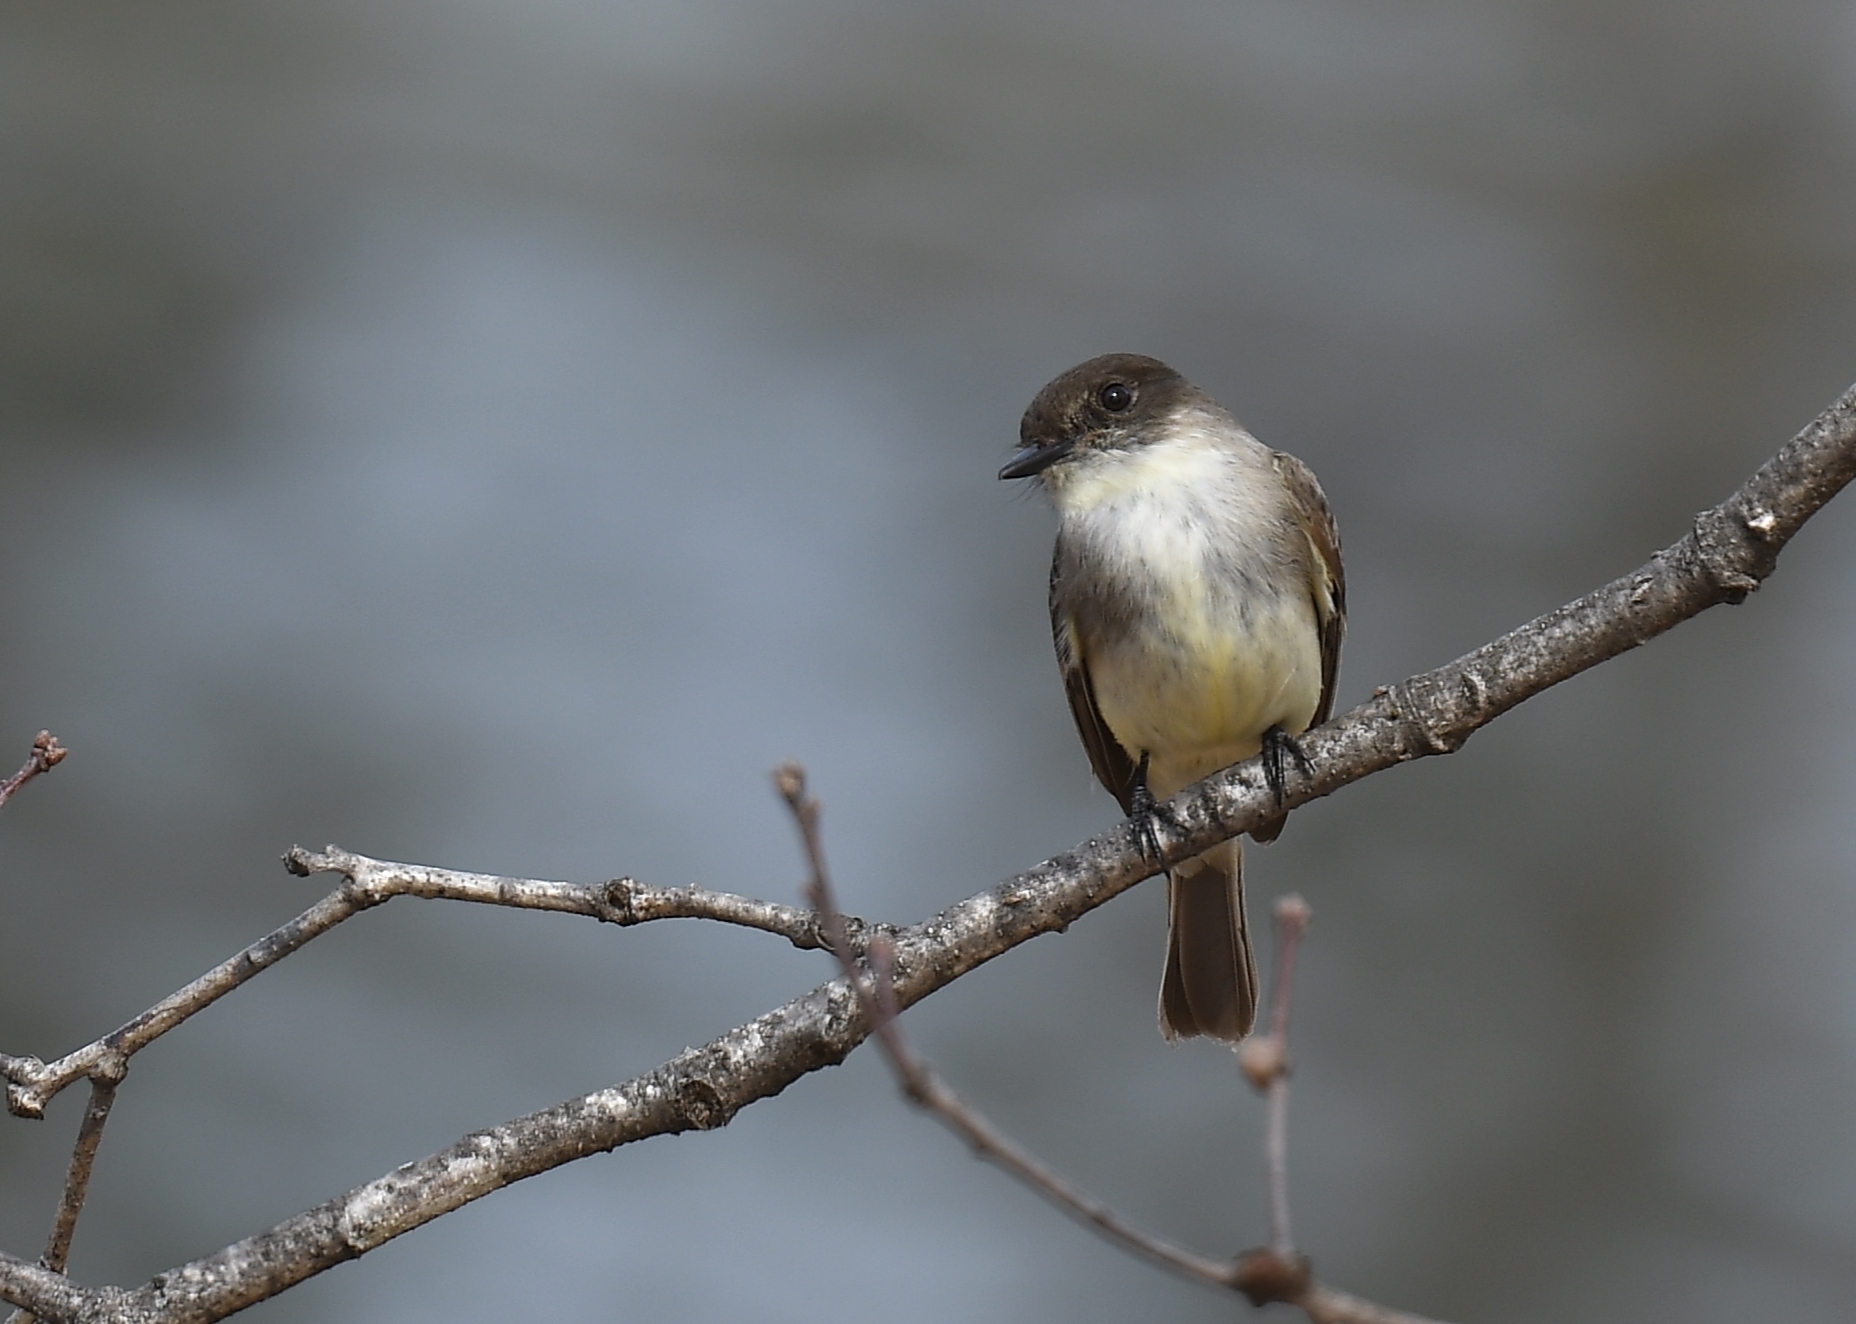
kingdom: Animalia
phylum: Chordata
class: Aves
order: Passeriformes
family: Tyrannidae
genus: Sayornis
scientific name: Sayornis phoebe
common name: Eastern phoebe
